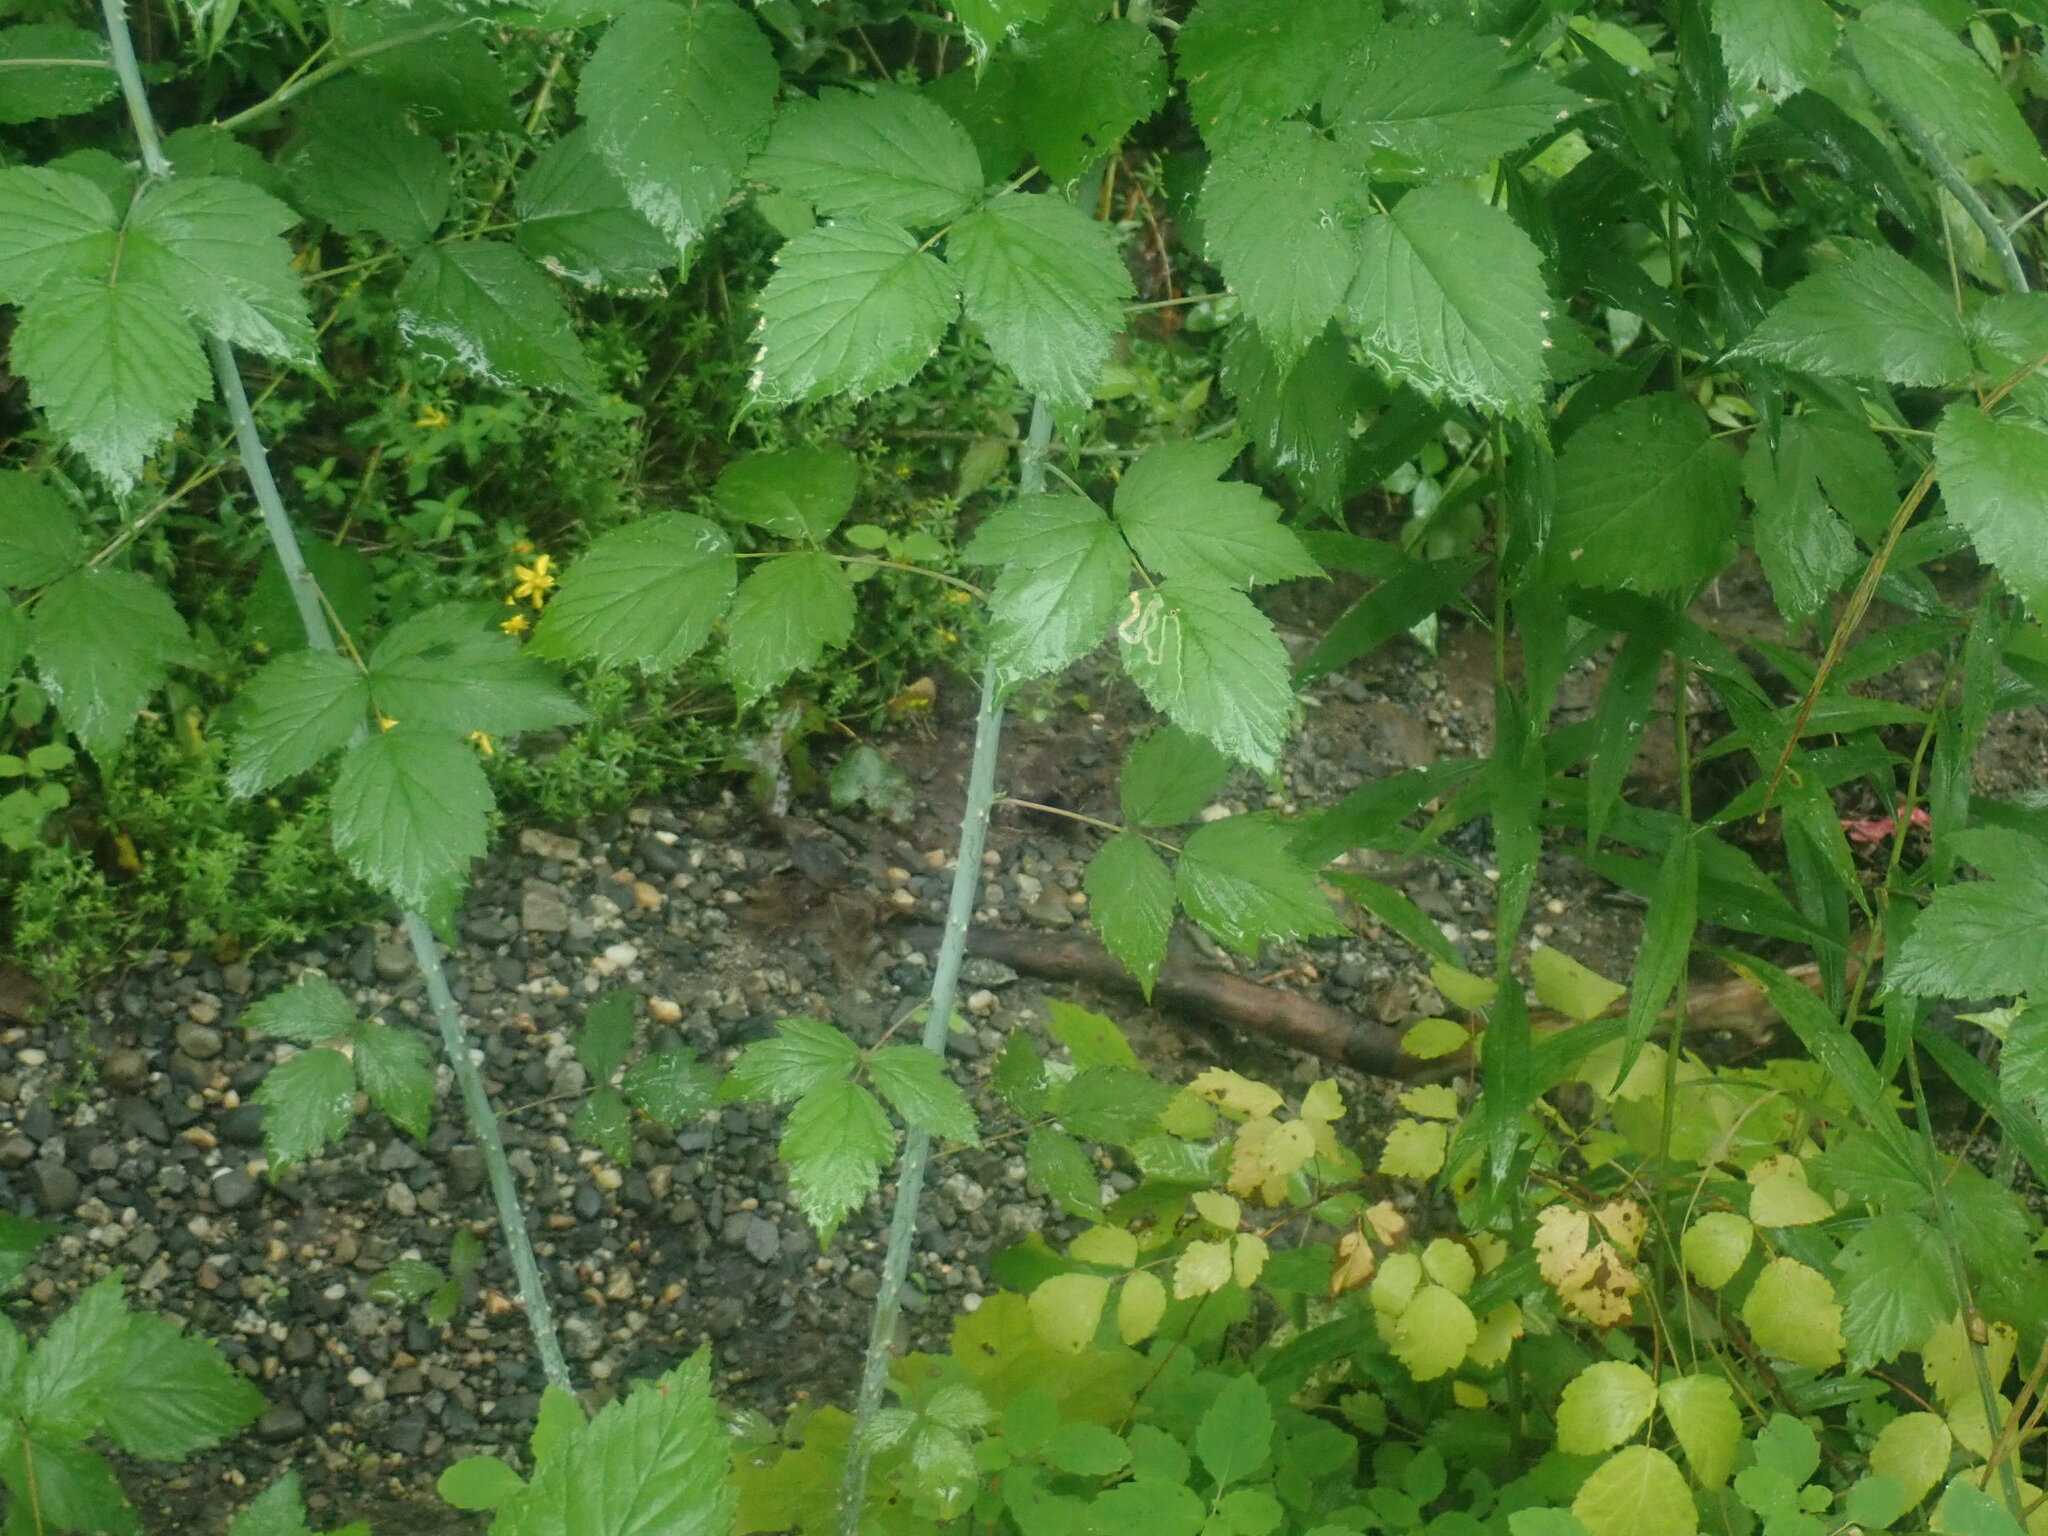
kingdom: Plantae
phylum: Tracheophyta
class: Magnoliopsida
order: Rosales
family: Rosaceae
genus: Rubus
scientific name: Rubus occidentalis
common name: Black raspberry
